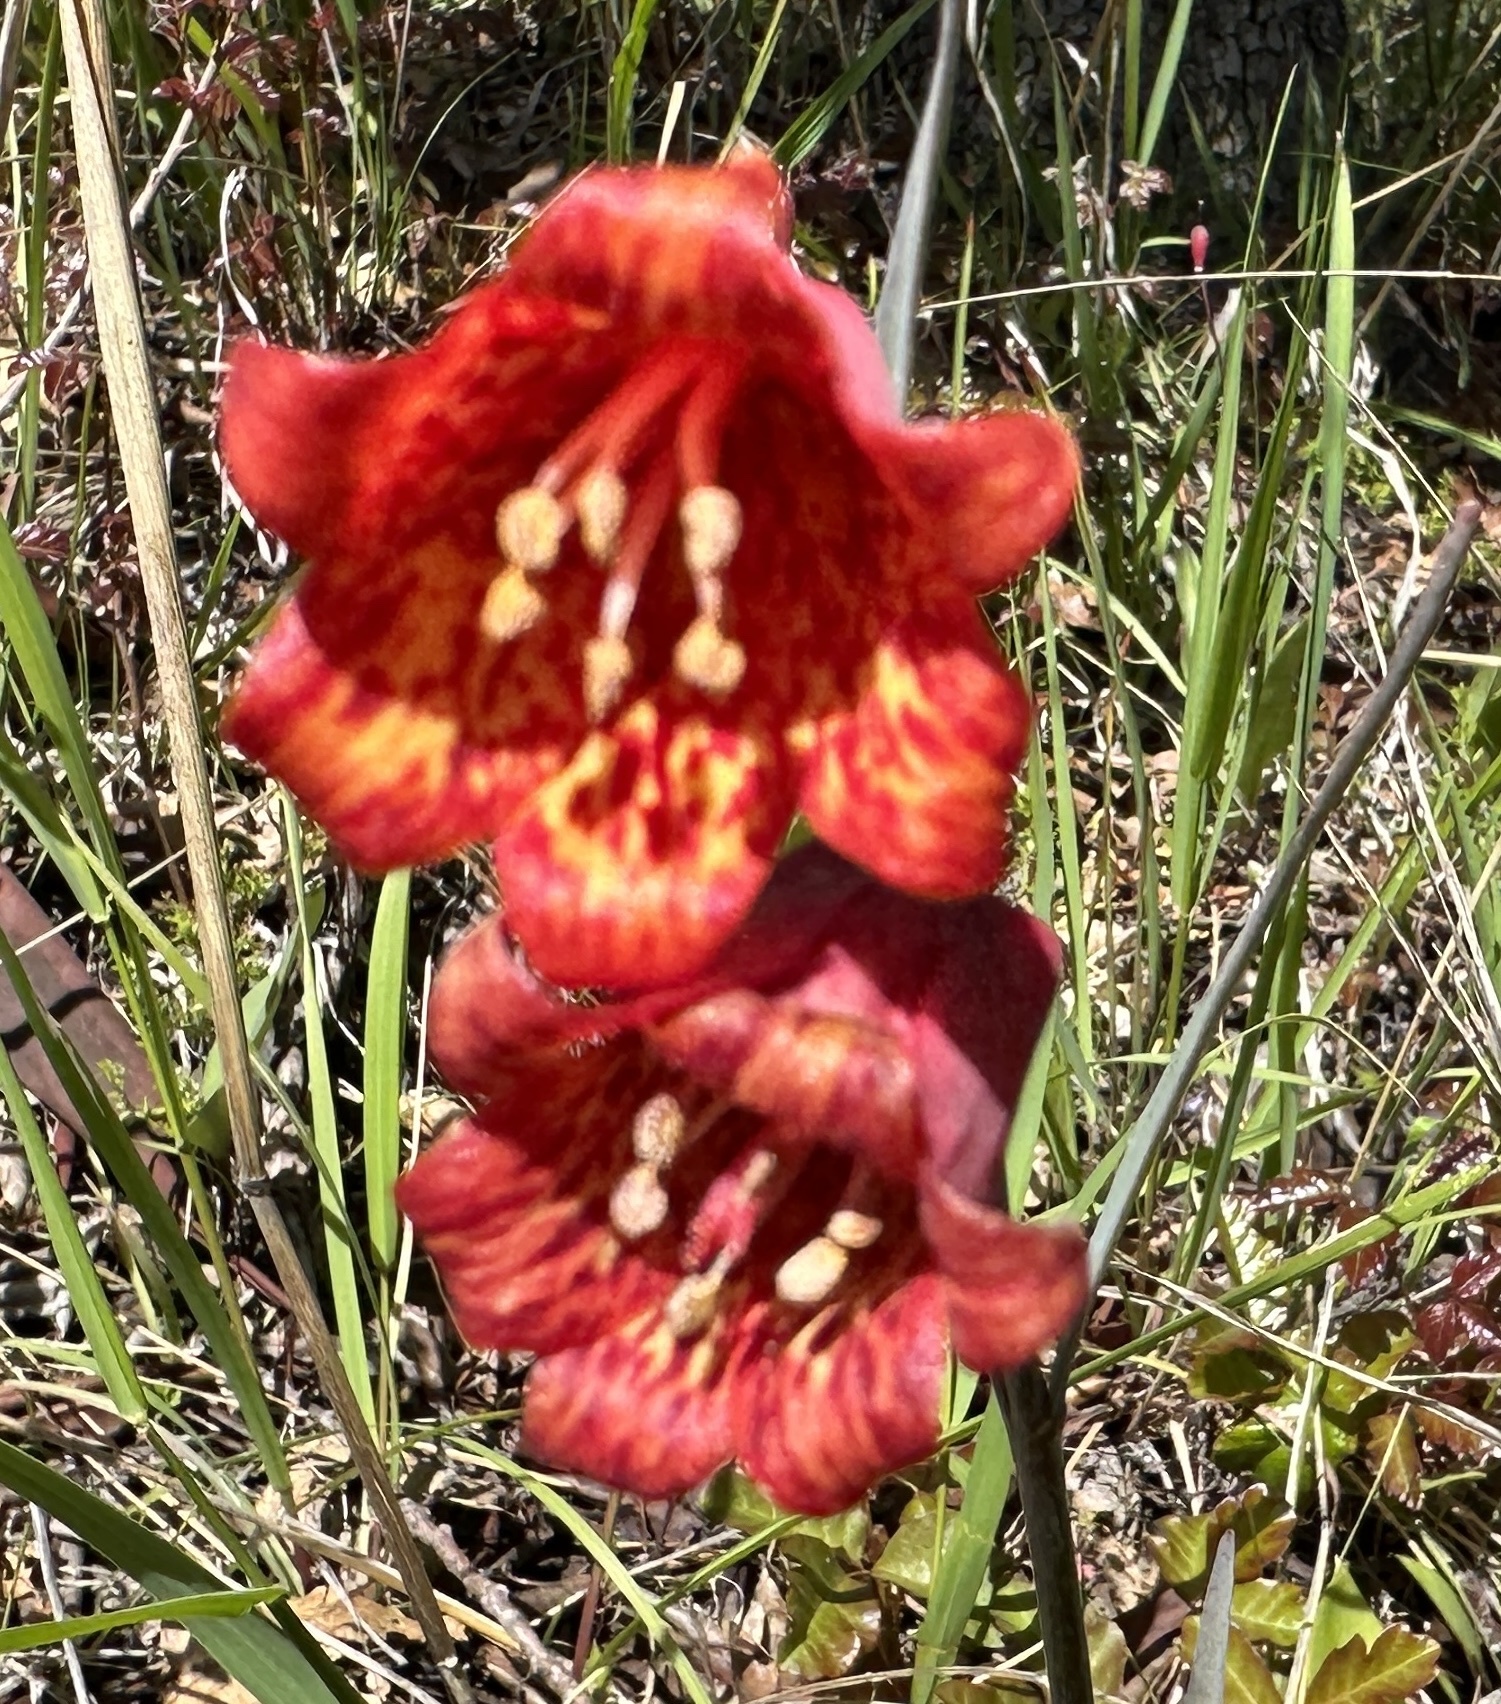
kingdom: Plantae
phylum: Tracheophyta
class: Liliopsida
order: Liliales
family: Liliaceae
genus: Fritillaria
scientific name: Fritillaria recurva
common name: Scarlet fritillary
